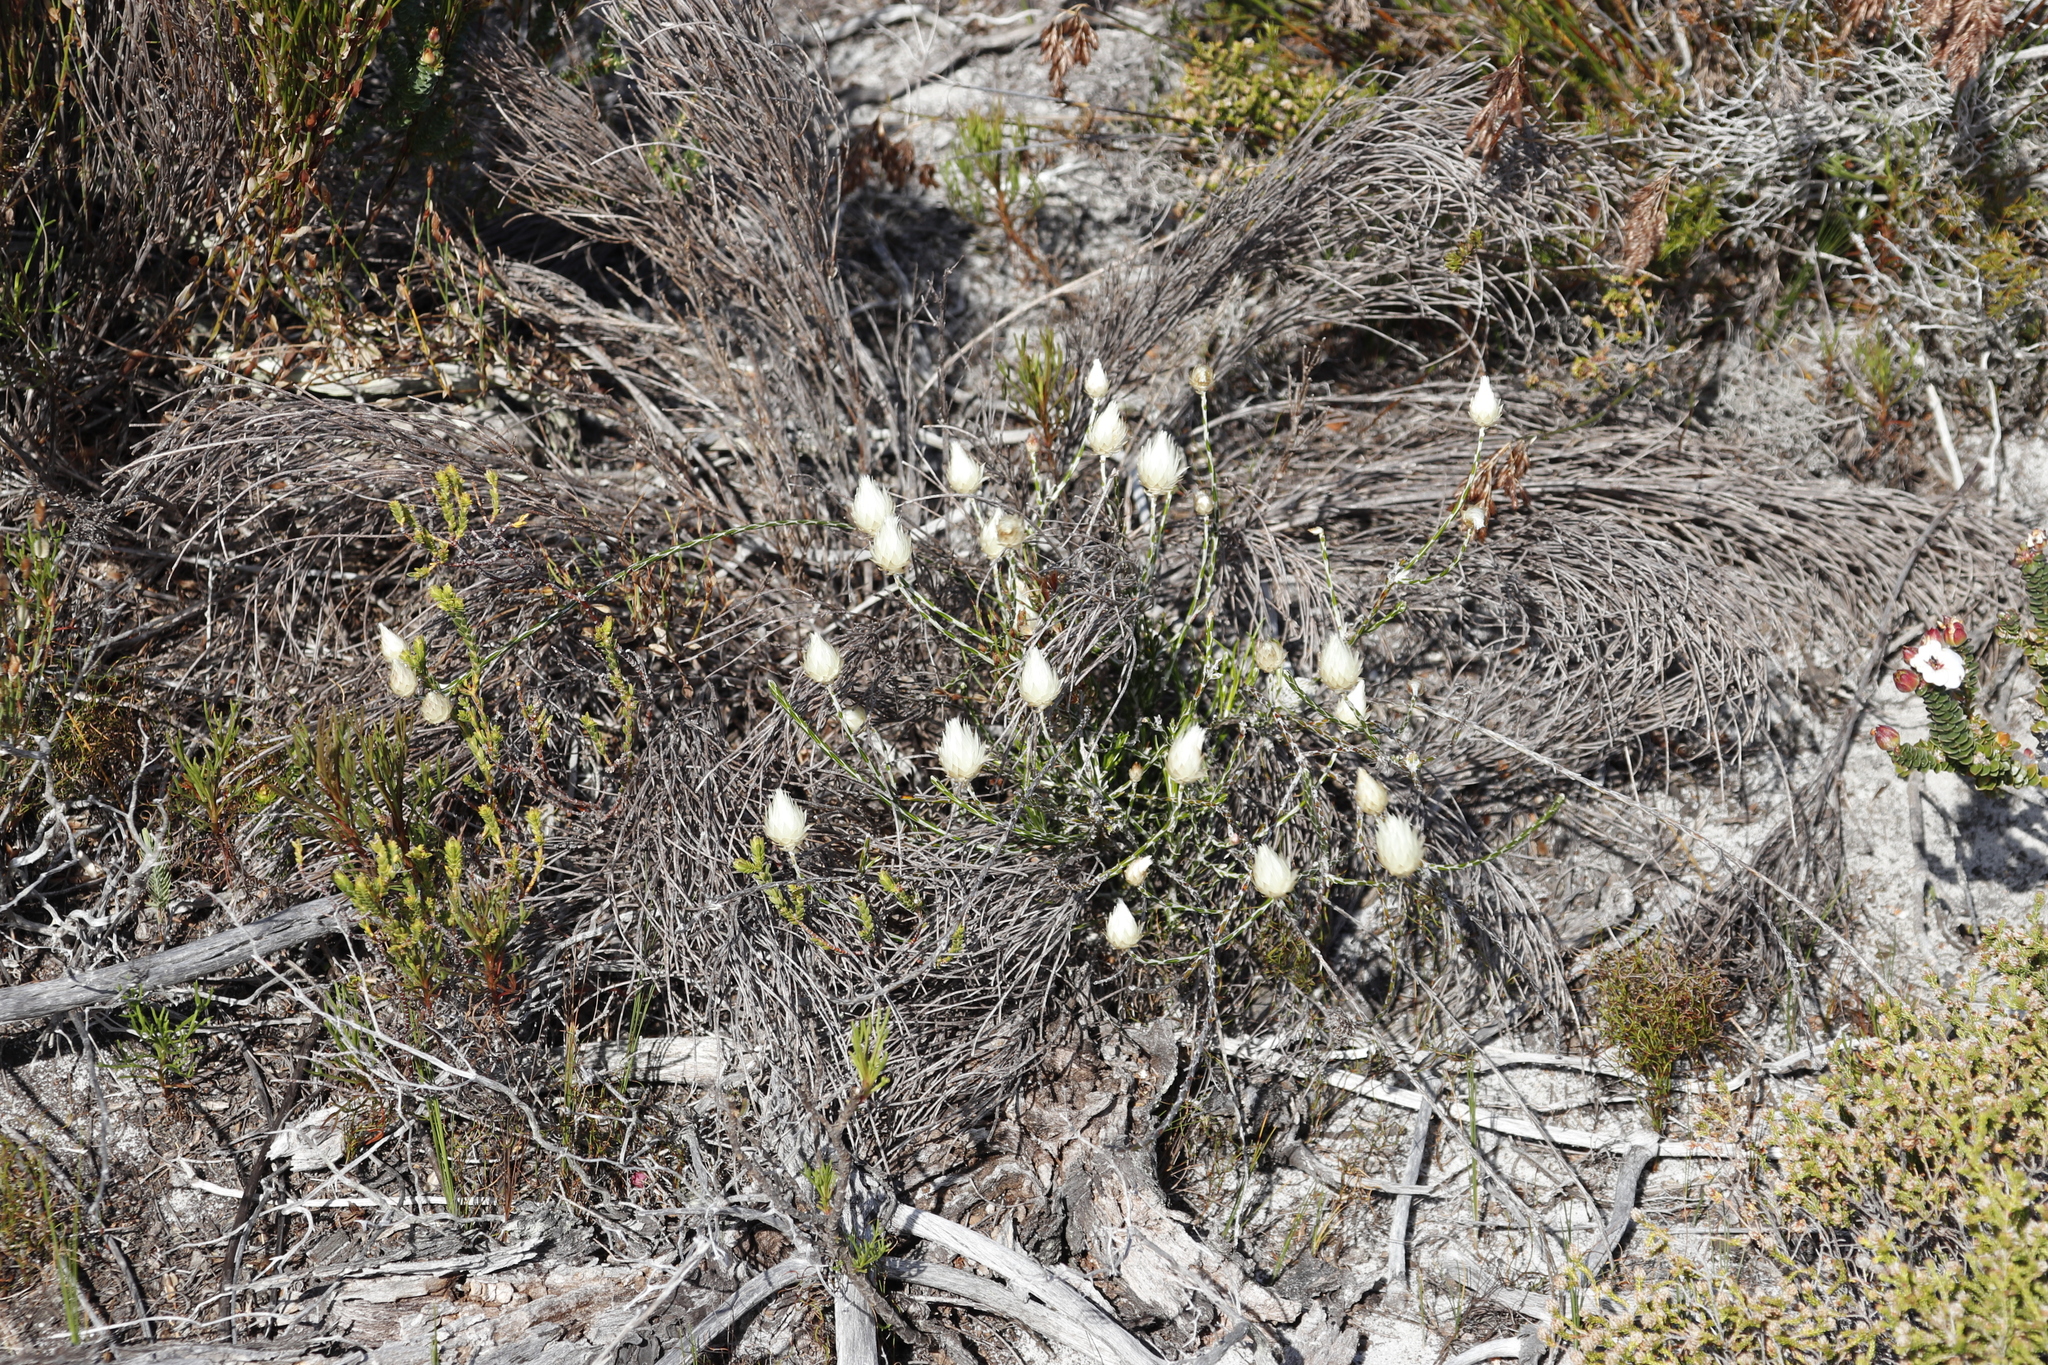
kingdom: Plantae
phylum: Tracheophyta
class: Magnoliopsida
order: Asterales
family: Asteraceae
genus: Edmondia
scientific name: Edmondia sesamoides
